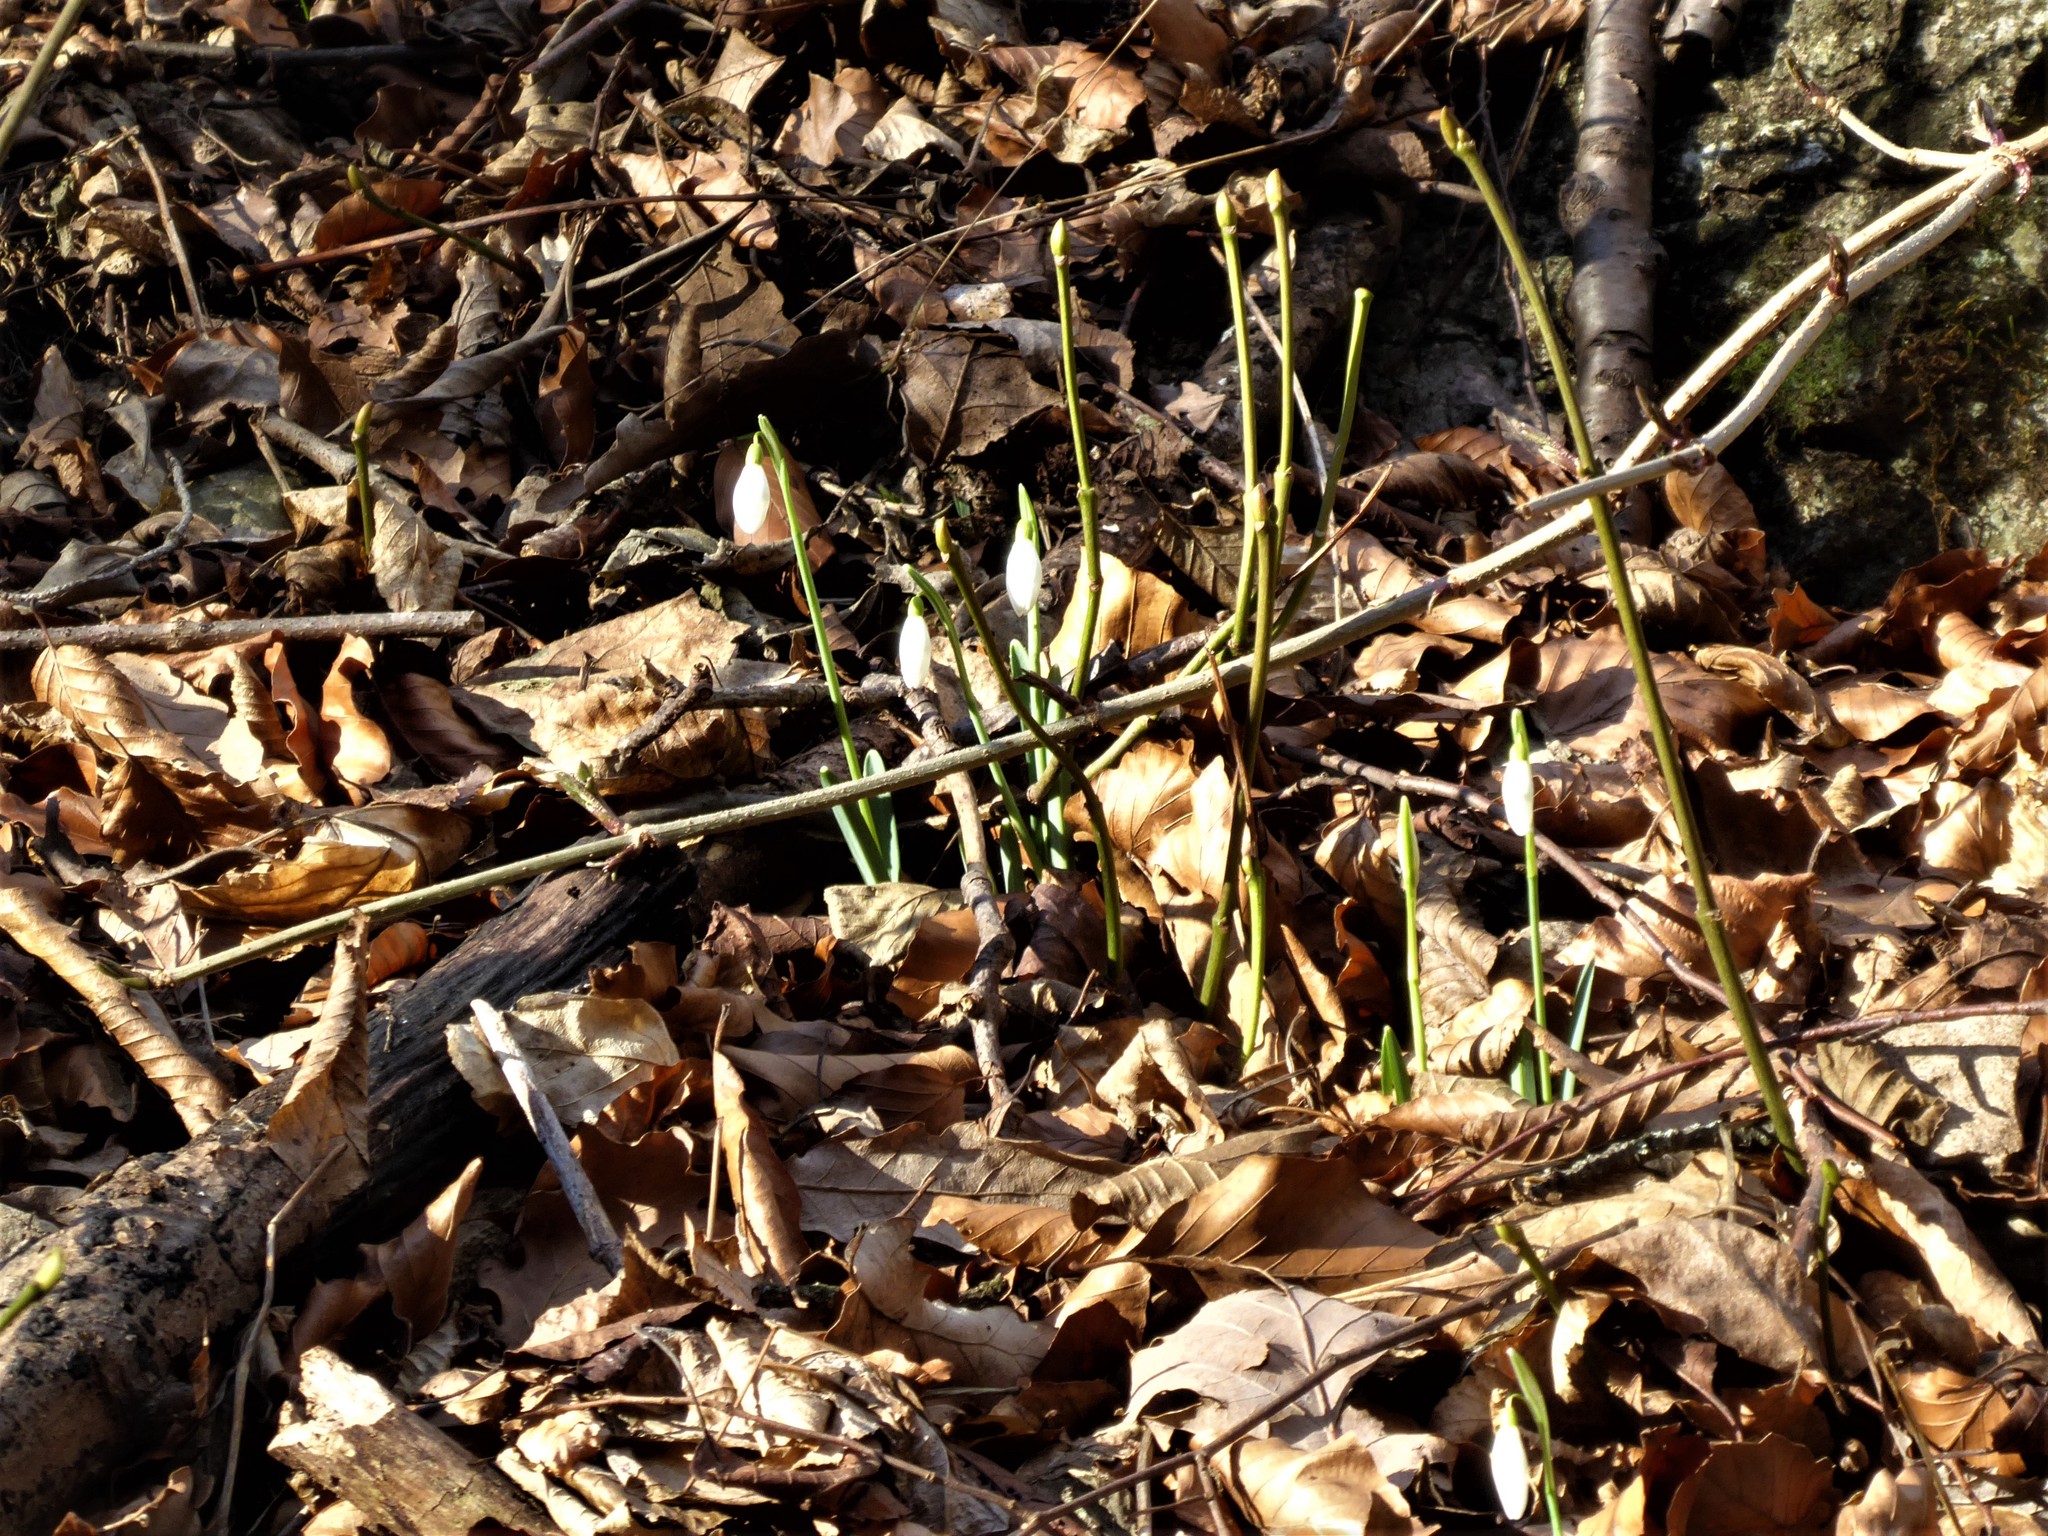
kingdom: Plantae
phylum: Tracheophyta
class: Liliopsida
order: Asparagales
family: Amaryllidaceae
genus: Galanthus
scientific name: Galanthus nivalis
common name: Snowdrop
